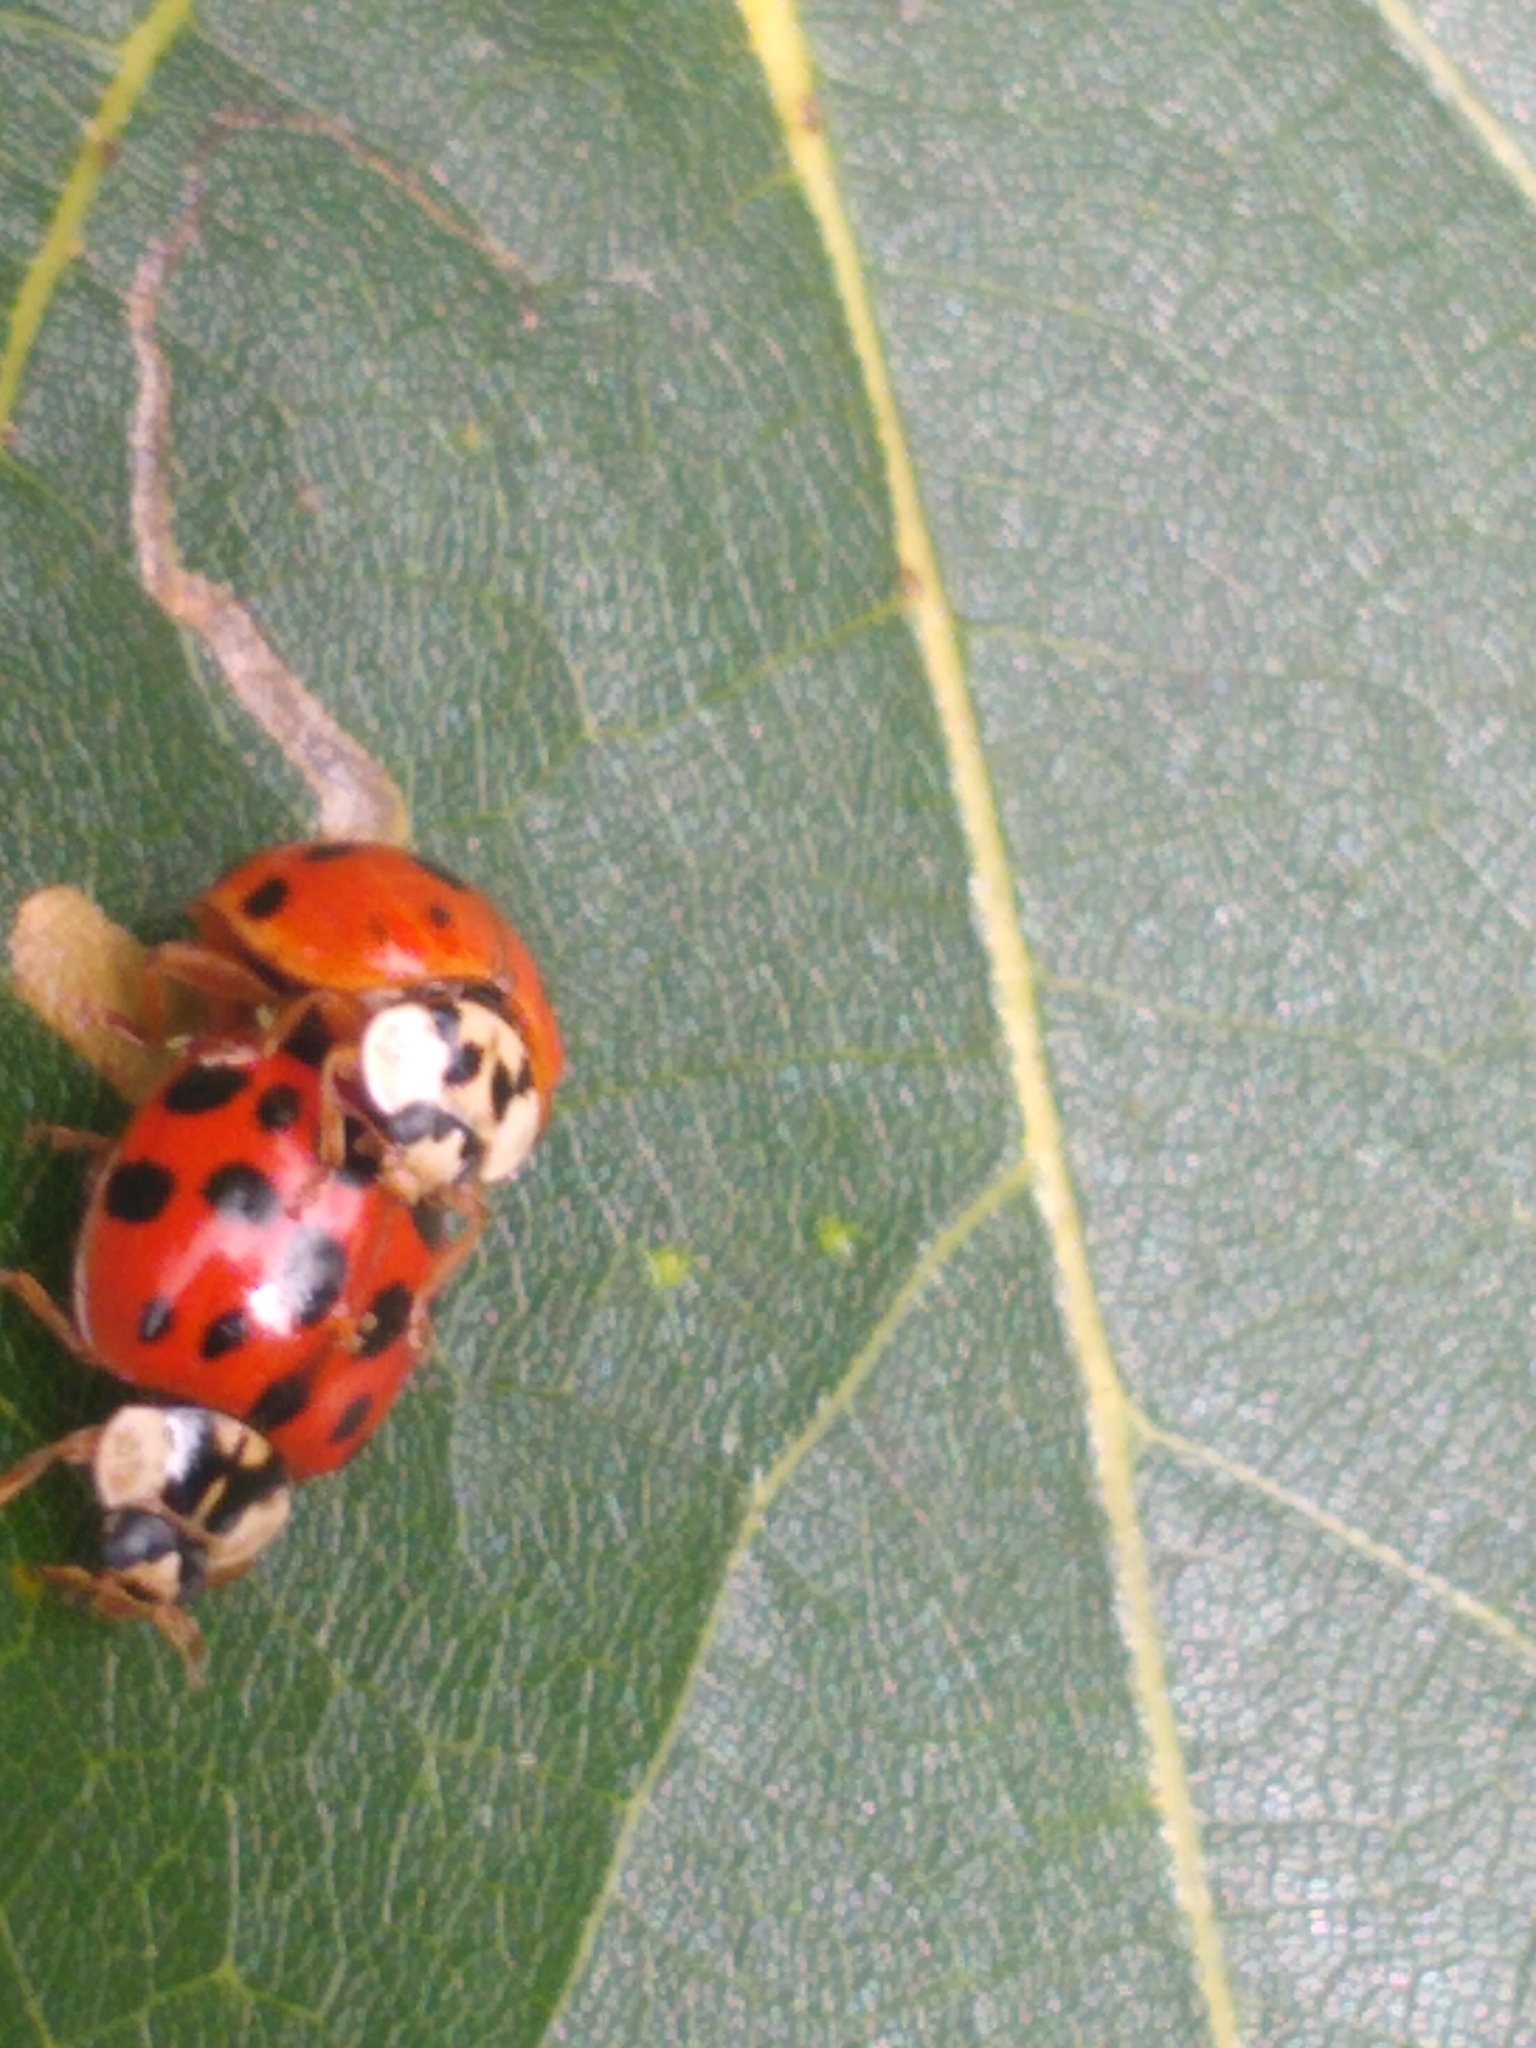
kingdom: Animalia
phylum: Arthropoda
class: Insecta
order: Coleoptera
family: Coccinellidae
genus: Harmonia
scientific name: Harmonia axyridis
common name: Harlequin ladybird
